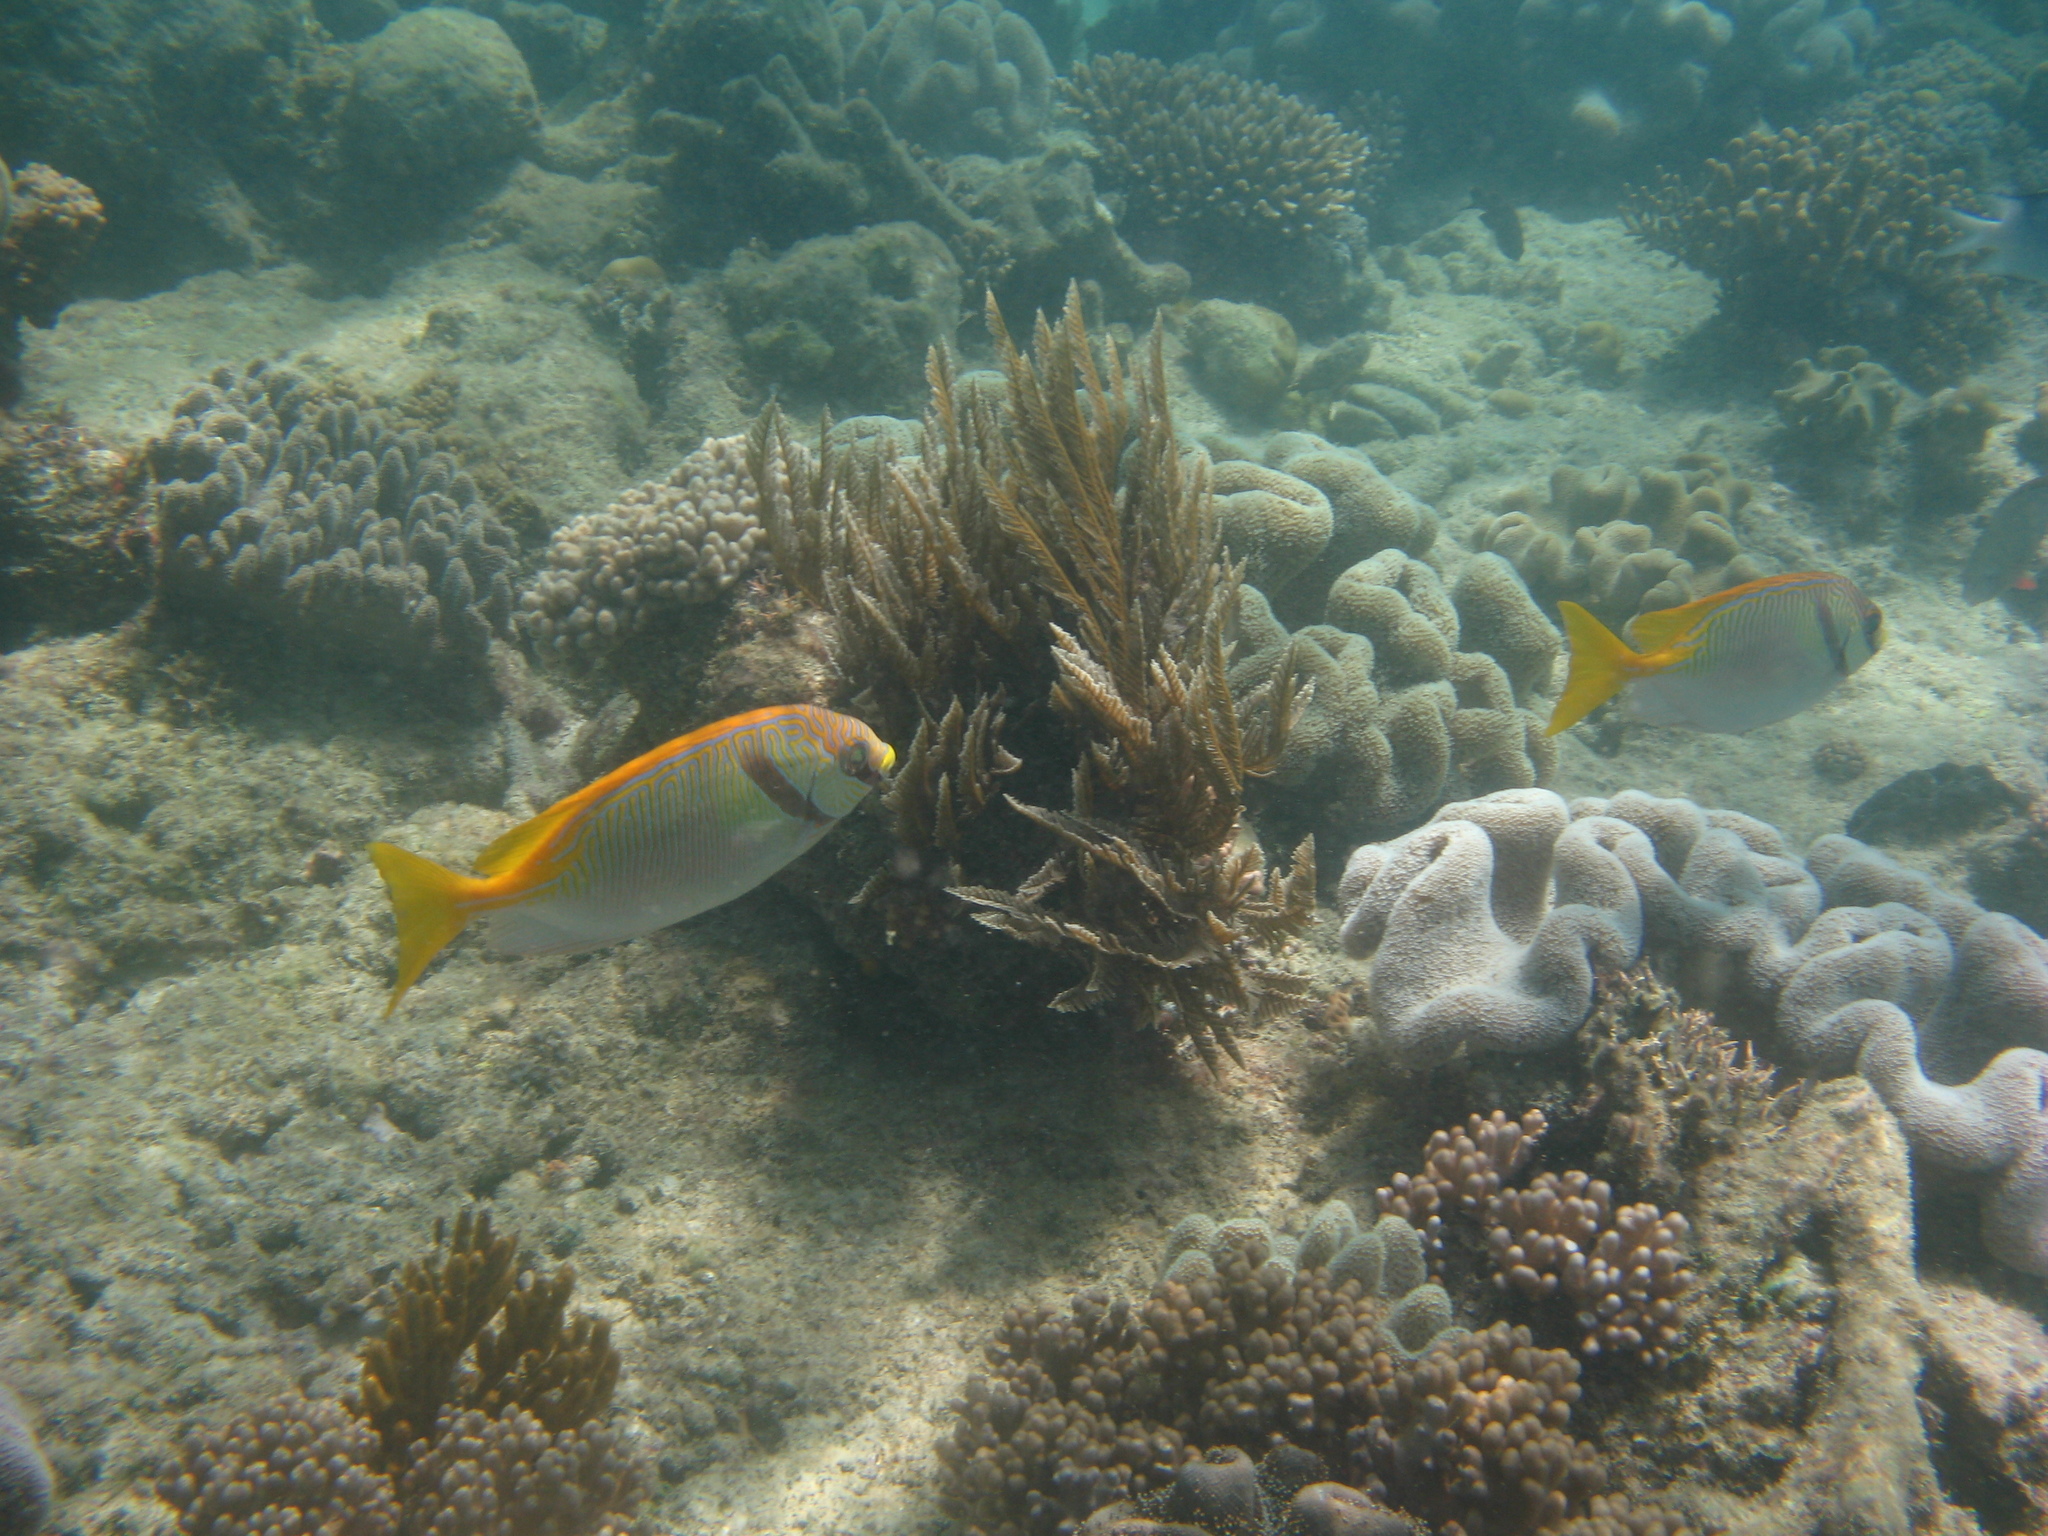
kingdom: Animalia
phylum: Chordata
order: Perciformes
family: Siganidae
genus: Siganus
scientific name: Siganus doliatus
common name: Barred spinefoot
